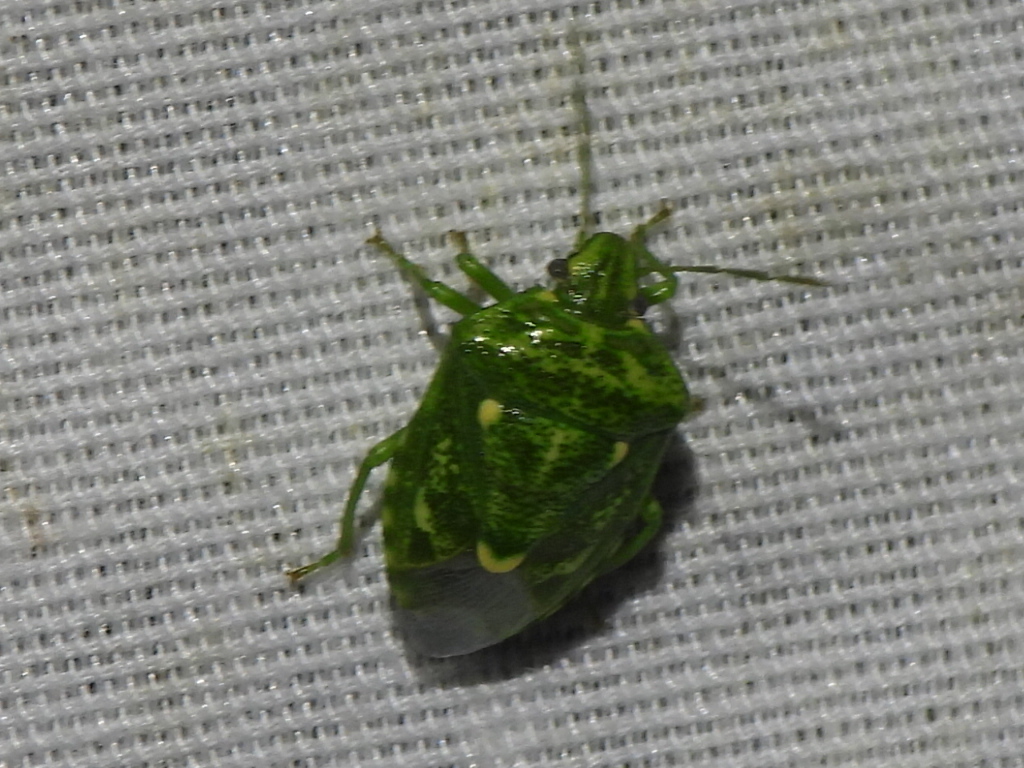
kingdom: Animalia
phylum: Arthropoda
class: Insecta
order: Hemiptera
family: Pentatomidae
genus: Banasa
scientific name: Banasa euchlora
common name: Cedar berry bug
